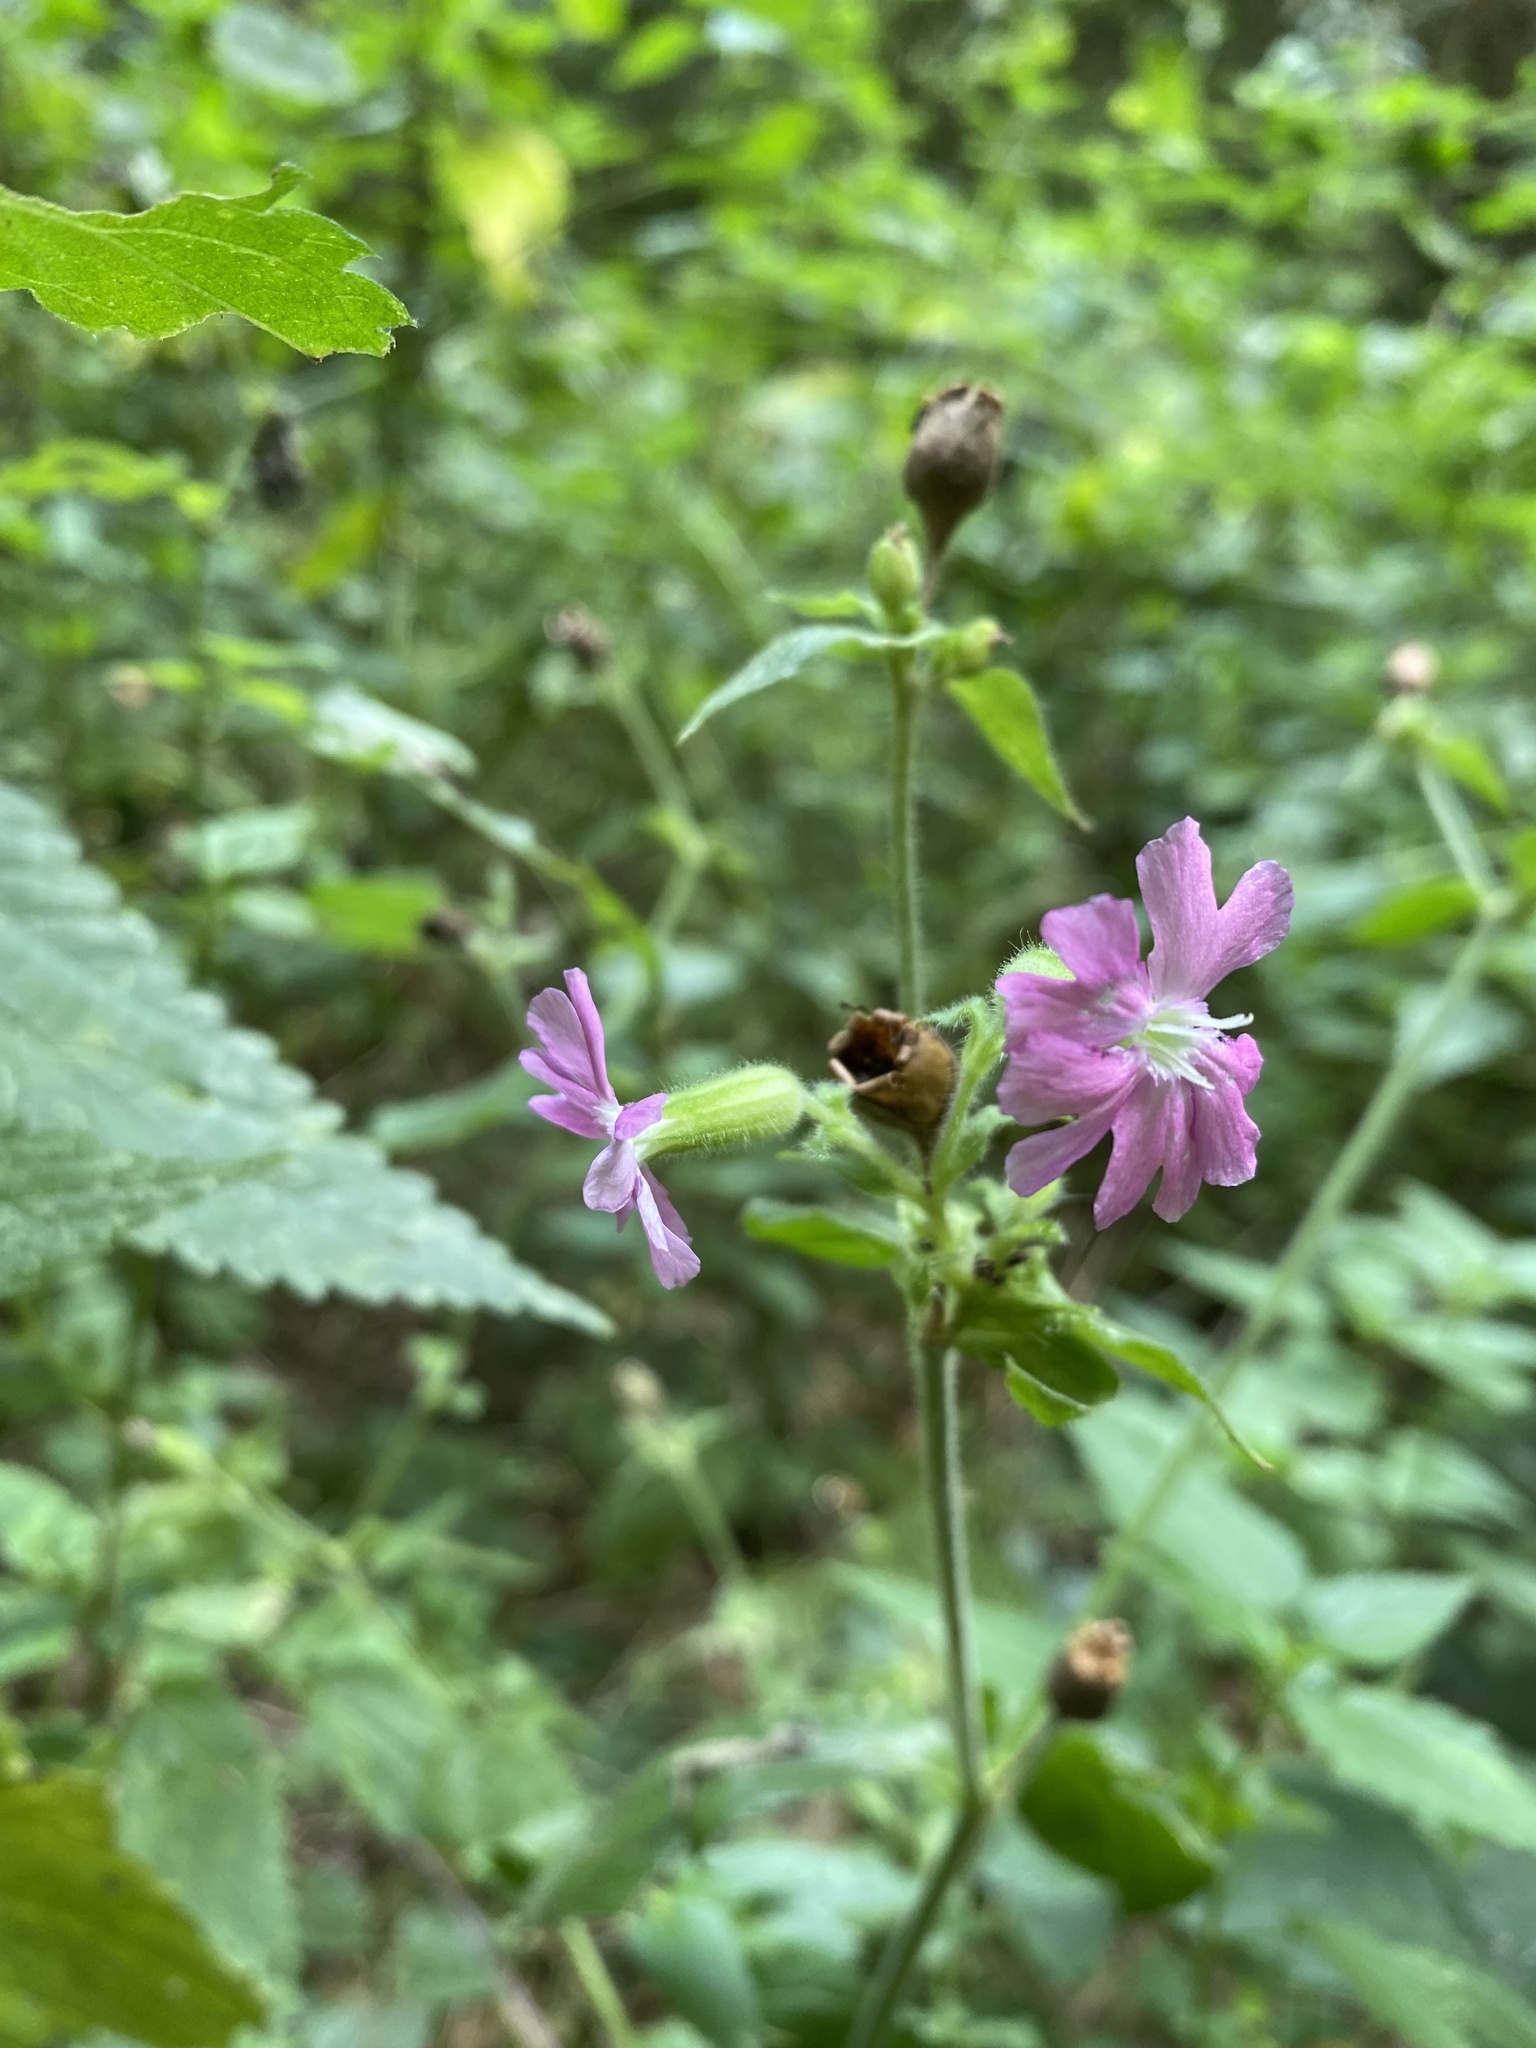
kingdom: Plantae
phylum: Tracheophyta
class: Magnoliopsida
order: Caryophyllales
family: Caryophyllaceae
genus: Silene
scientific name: Silene dioica
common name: Red campion
